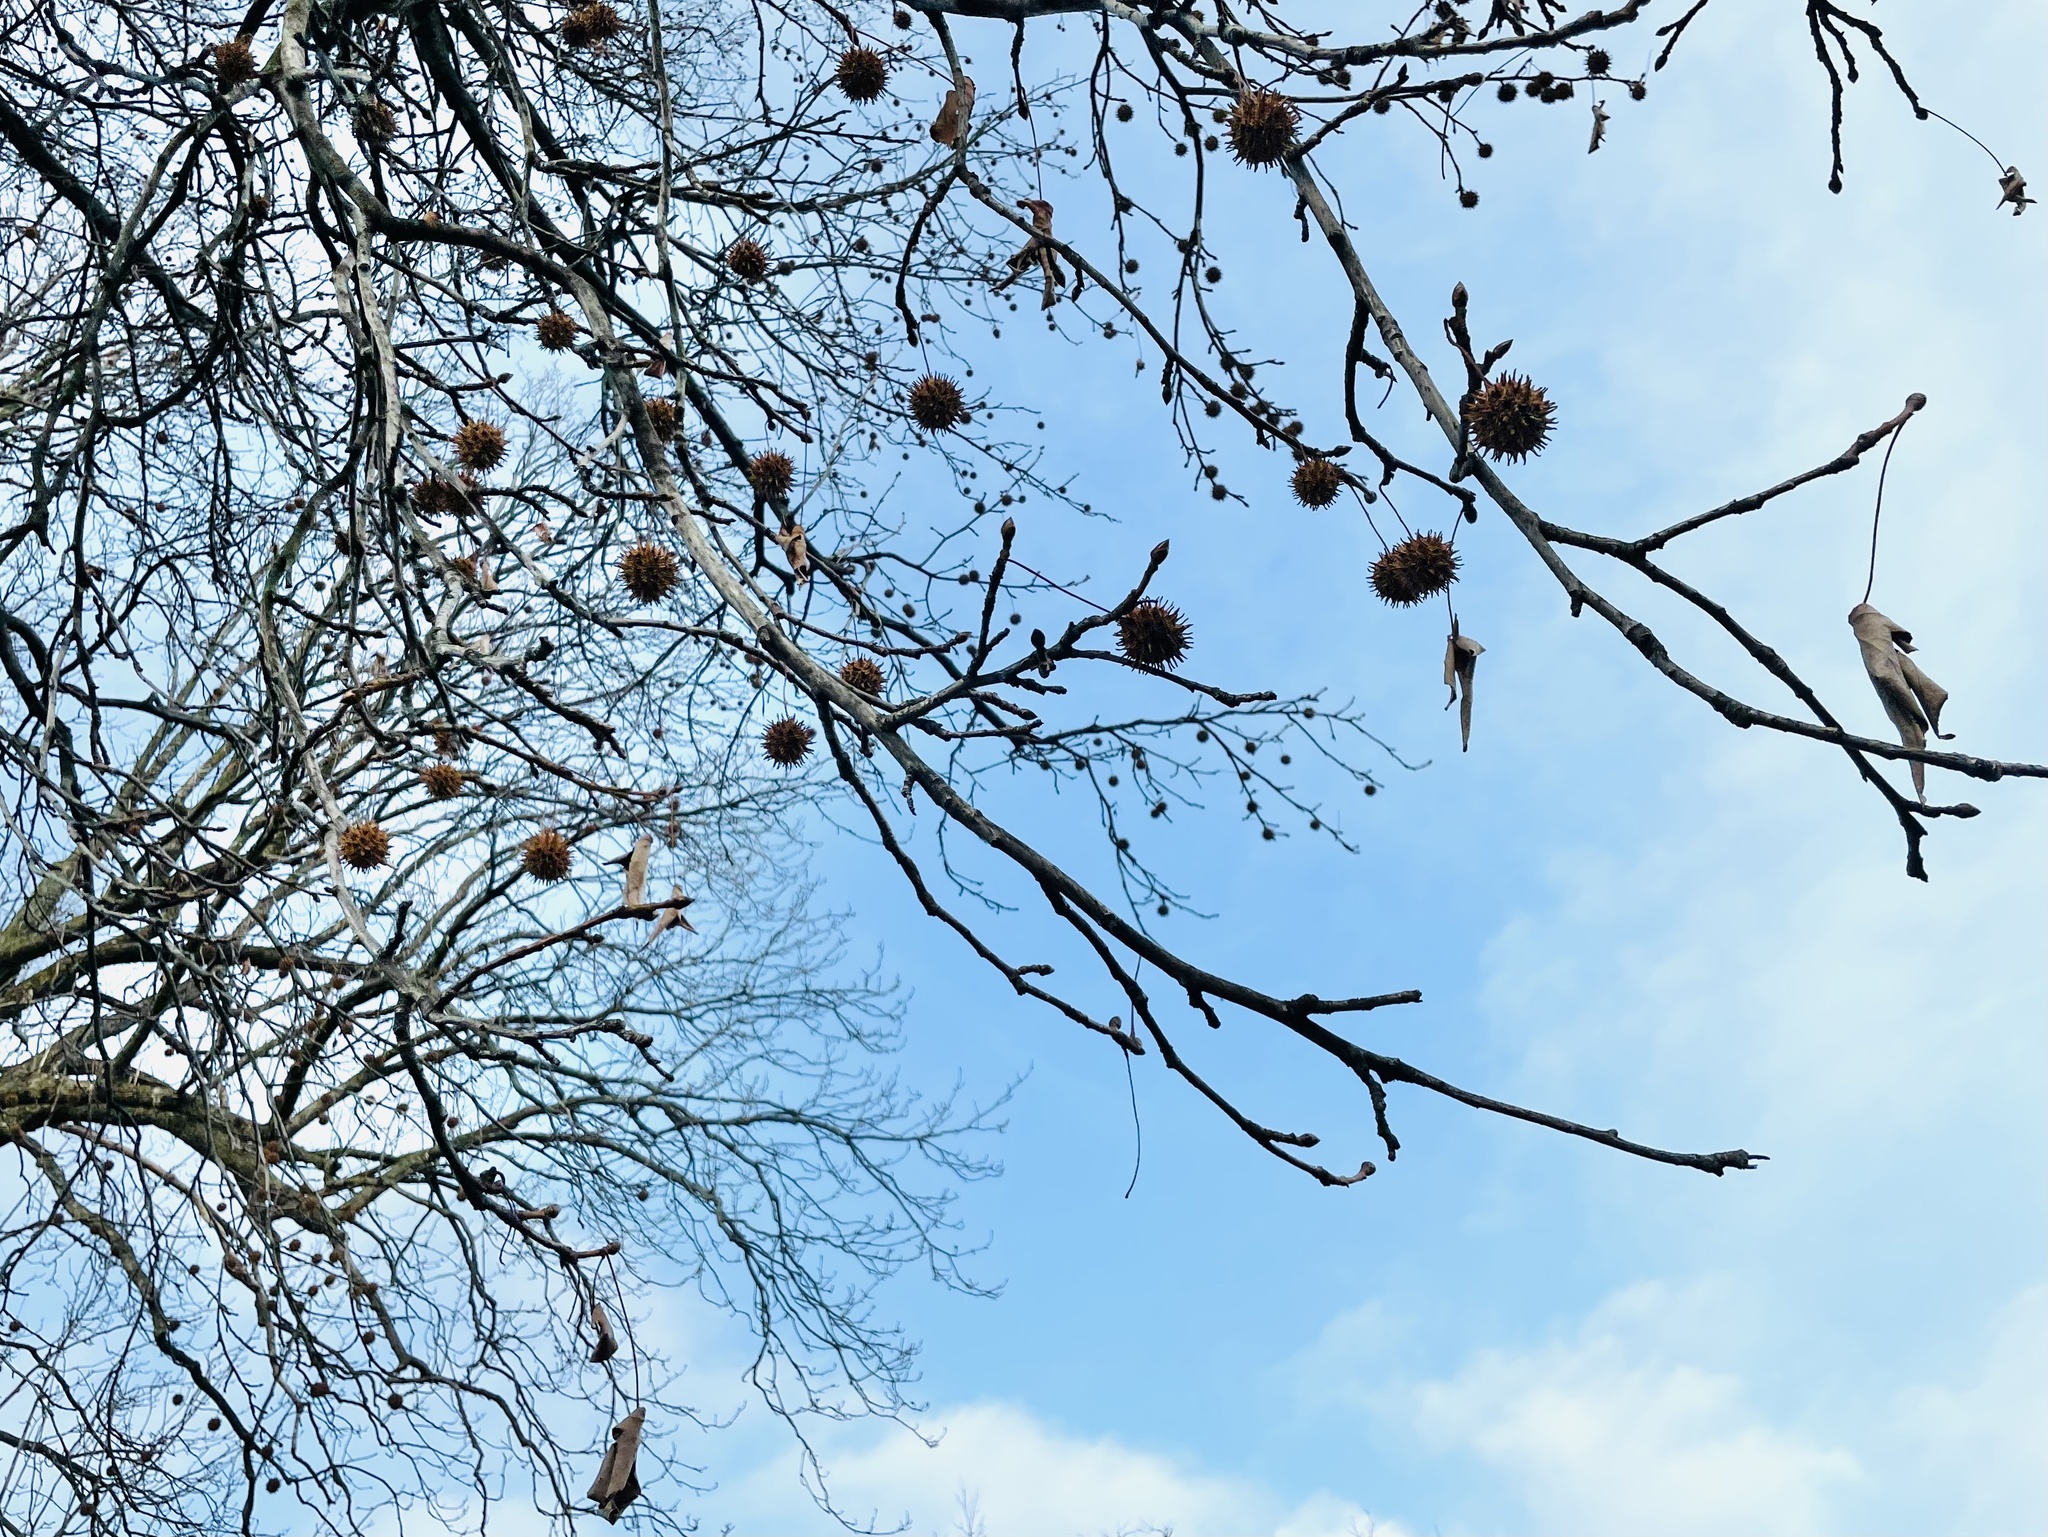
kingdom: Plantae
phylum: Tracheophyta
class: Magnoliopsida
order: Saxifragales
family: Altingiaceae
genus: Liquidambar
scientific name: Liquidambar styraciflua
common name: Sweet gum
